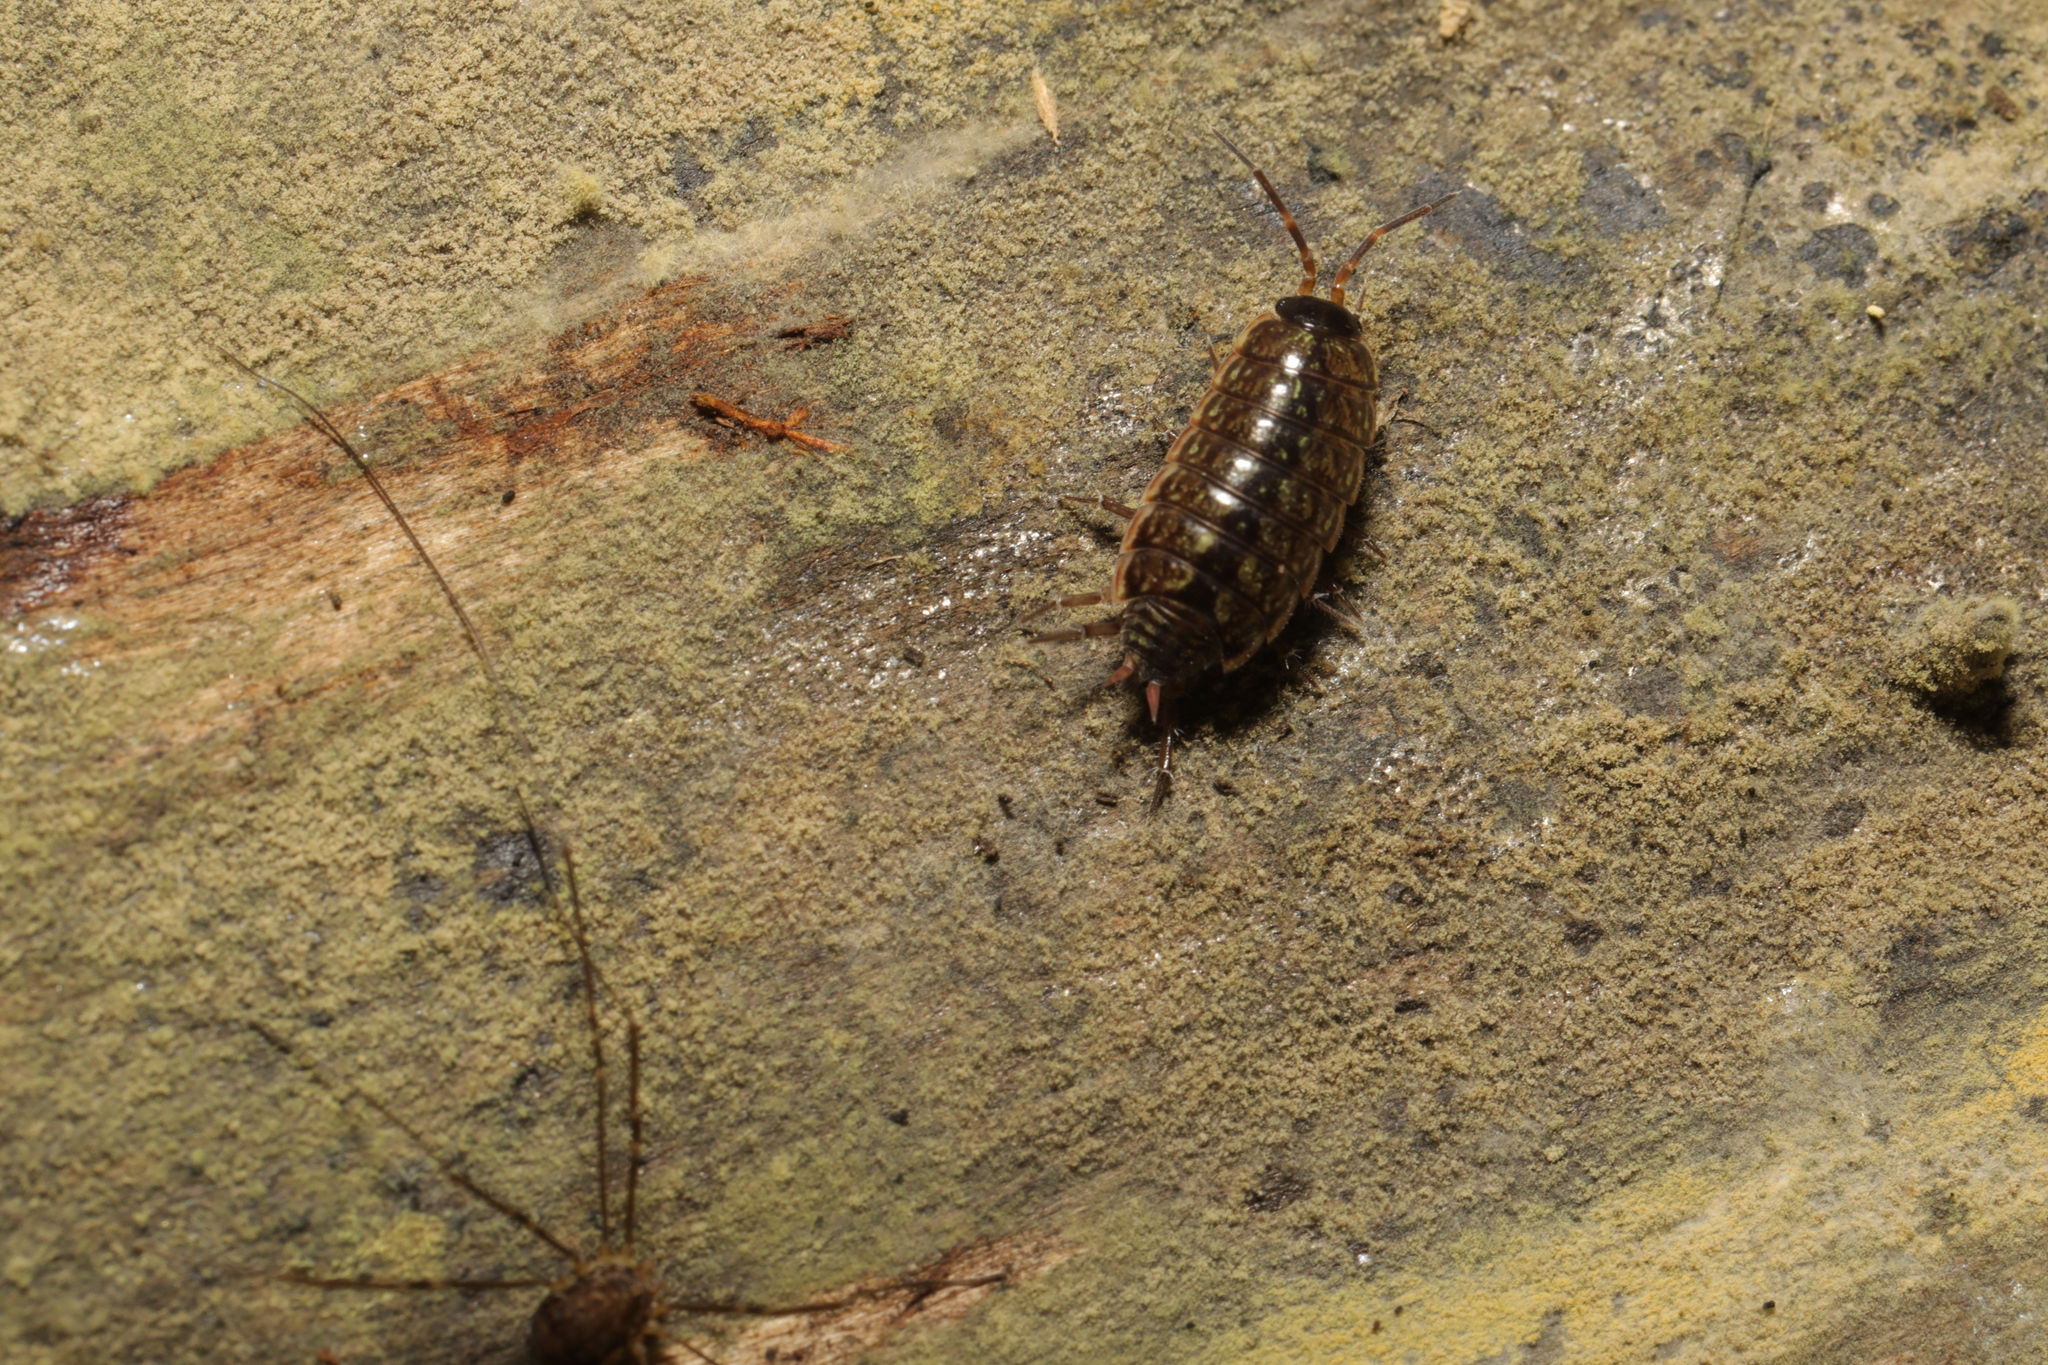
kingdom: Animalia
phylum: Arthropoda
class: Malacostraca
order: Isopoda
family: Philosciidae
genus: Philoscia
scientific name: Philoscia muscorum
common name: Common striped woodlouse
